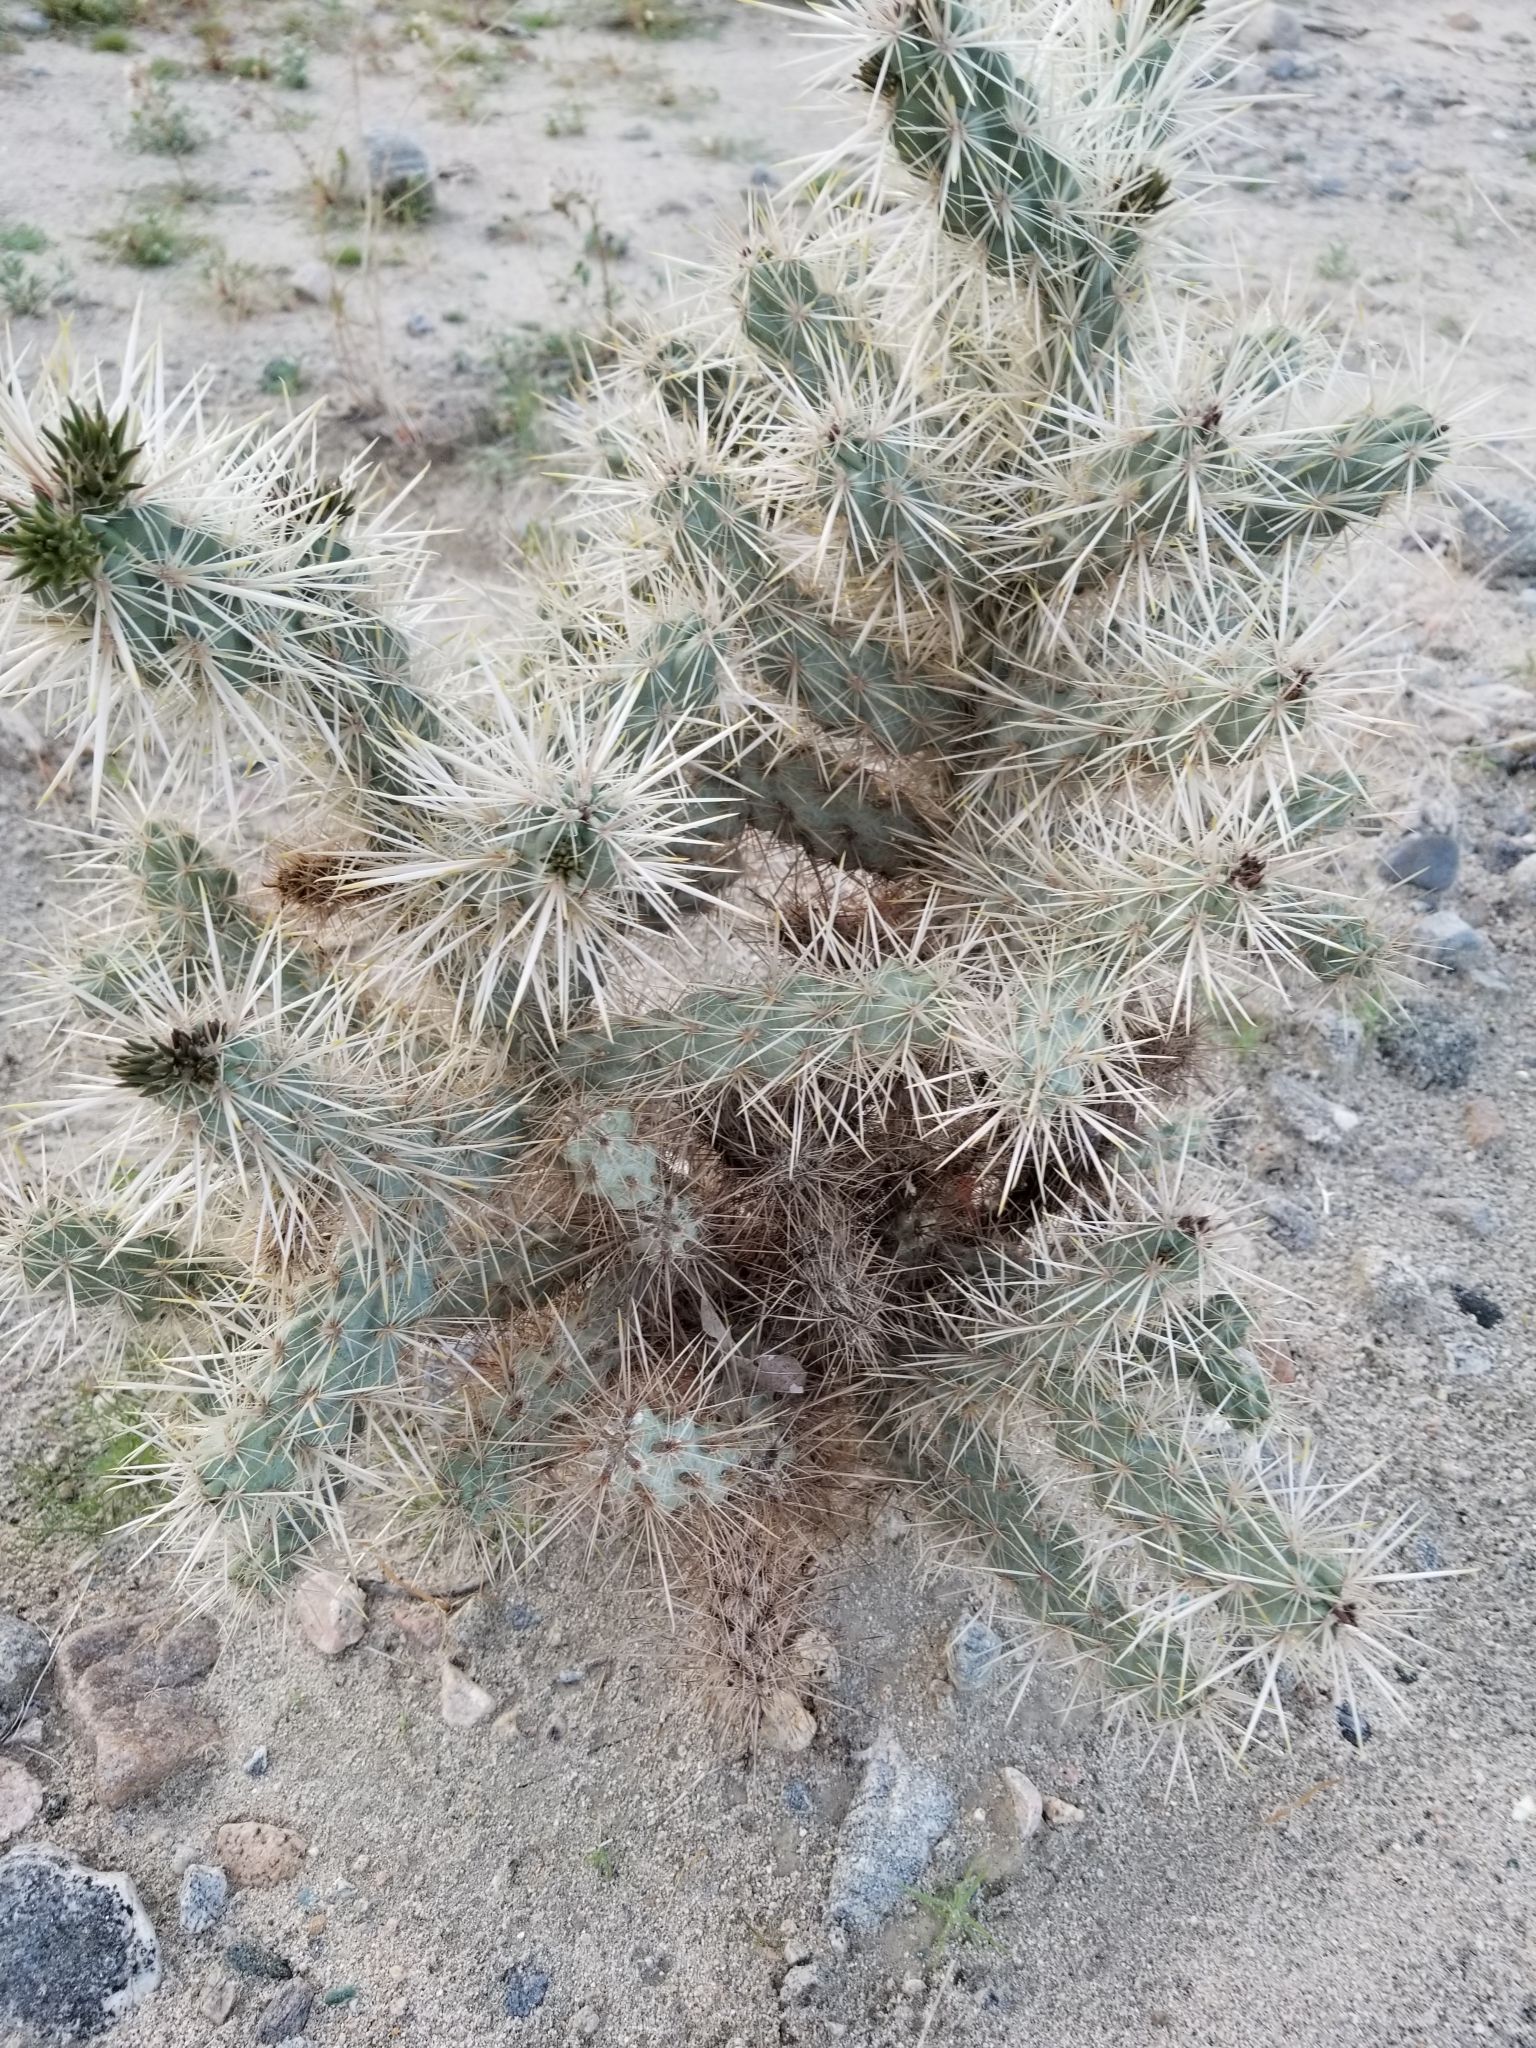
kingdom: Plantae
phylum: Tracheophyta
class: Magnoliopsida
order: Caryophyllales
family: Cactaceae
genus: Cylindropuntia
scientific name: Cylindropuntia echinocarpa
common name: Ground cholla
